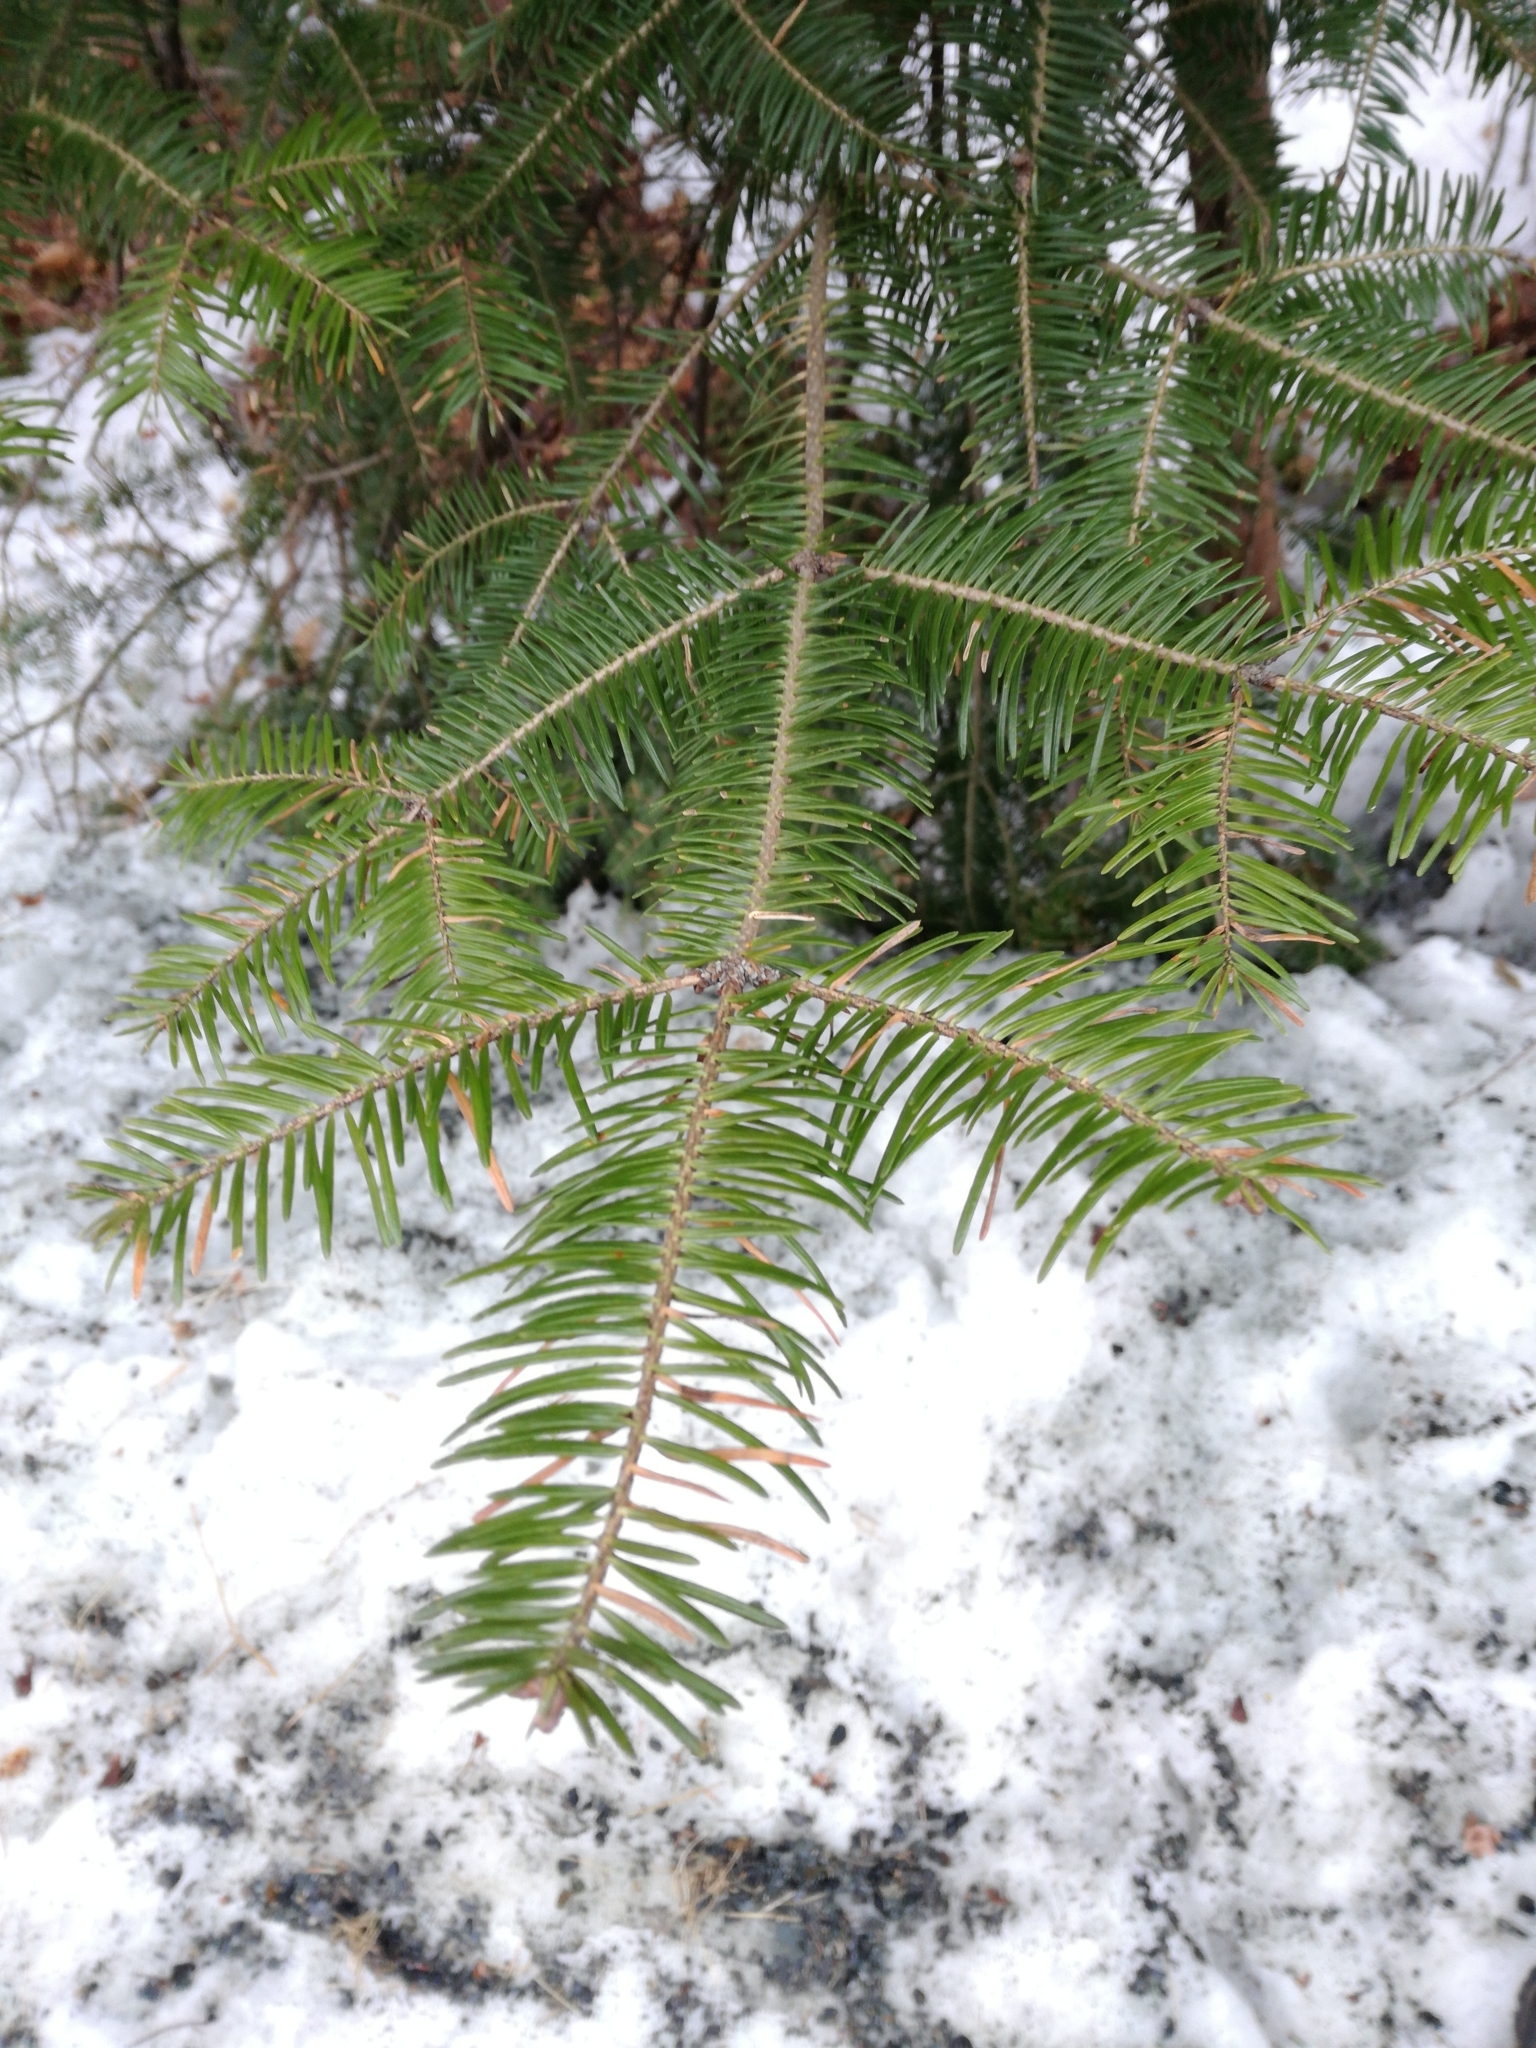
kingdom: Plantae
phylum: Tracheophyta
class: Pinopsida
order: Pinales
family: Pinaceae
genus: Abies
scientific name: Abies balsamea
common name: Balsam fir
